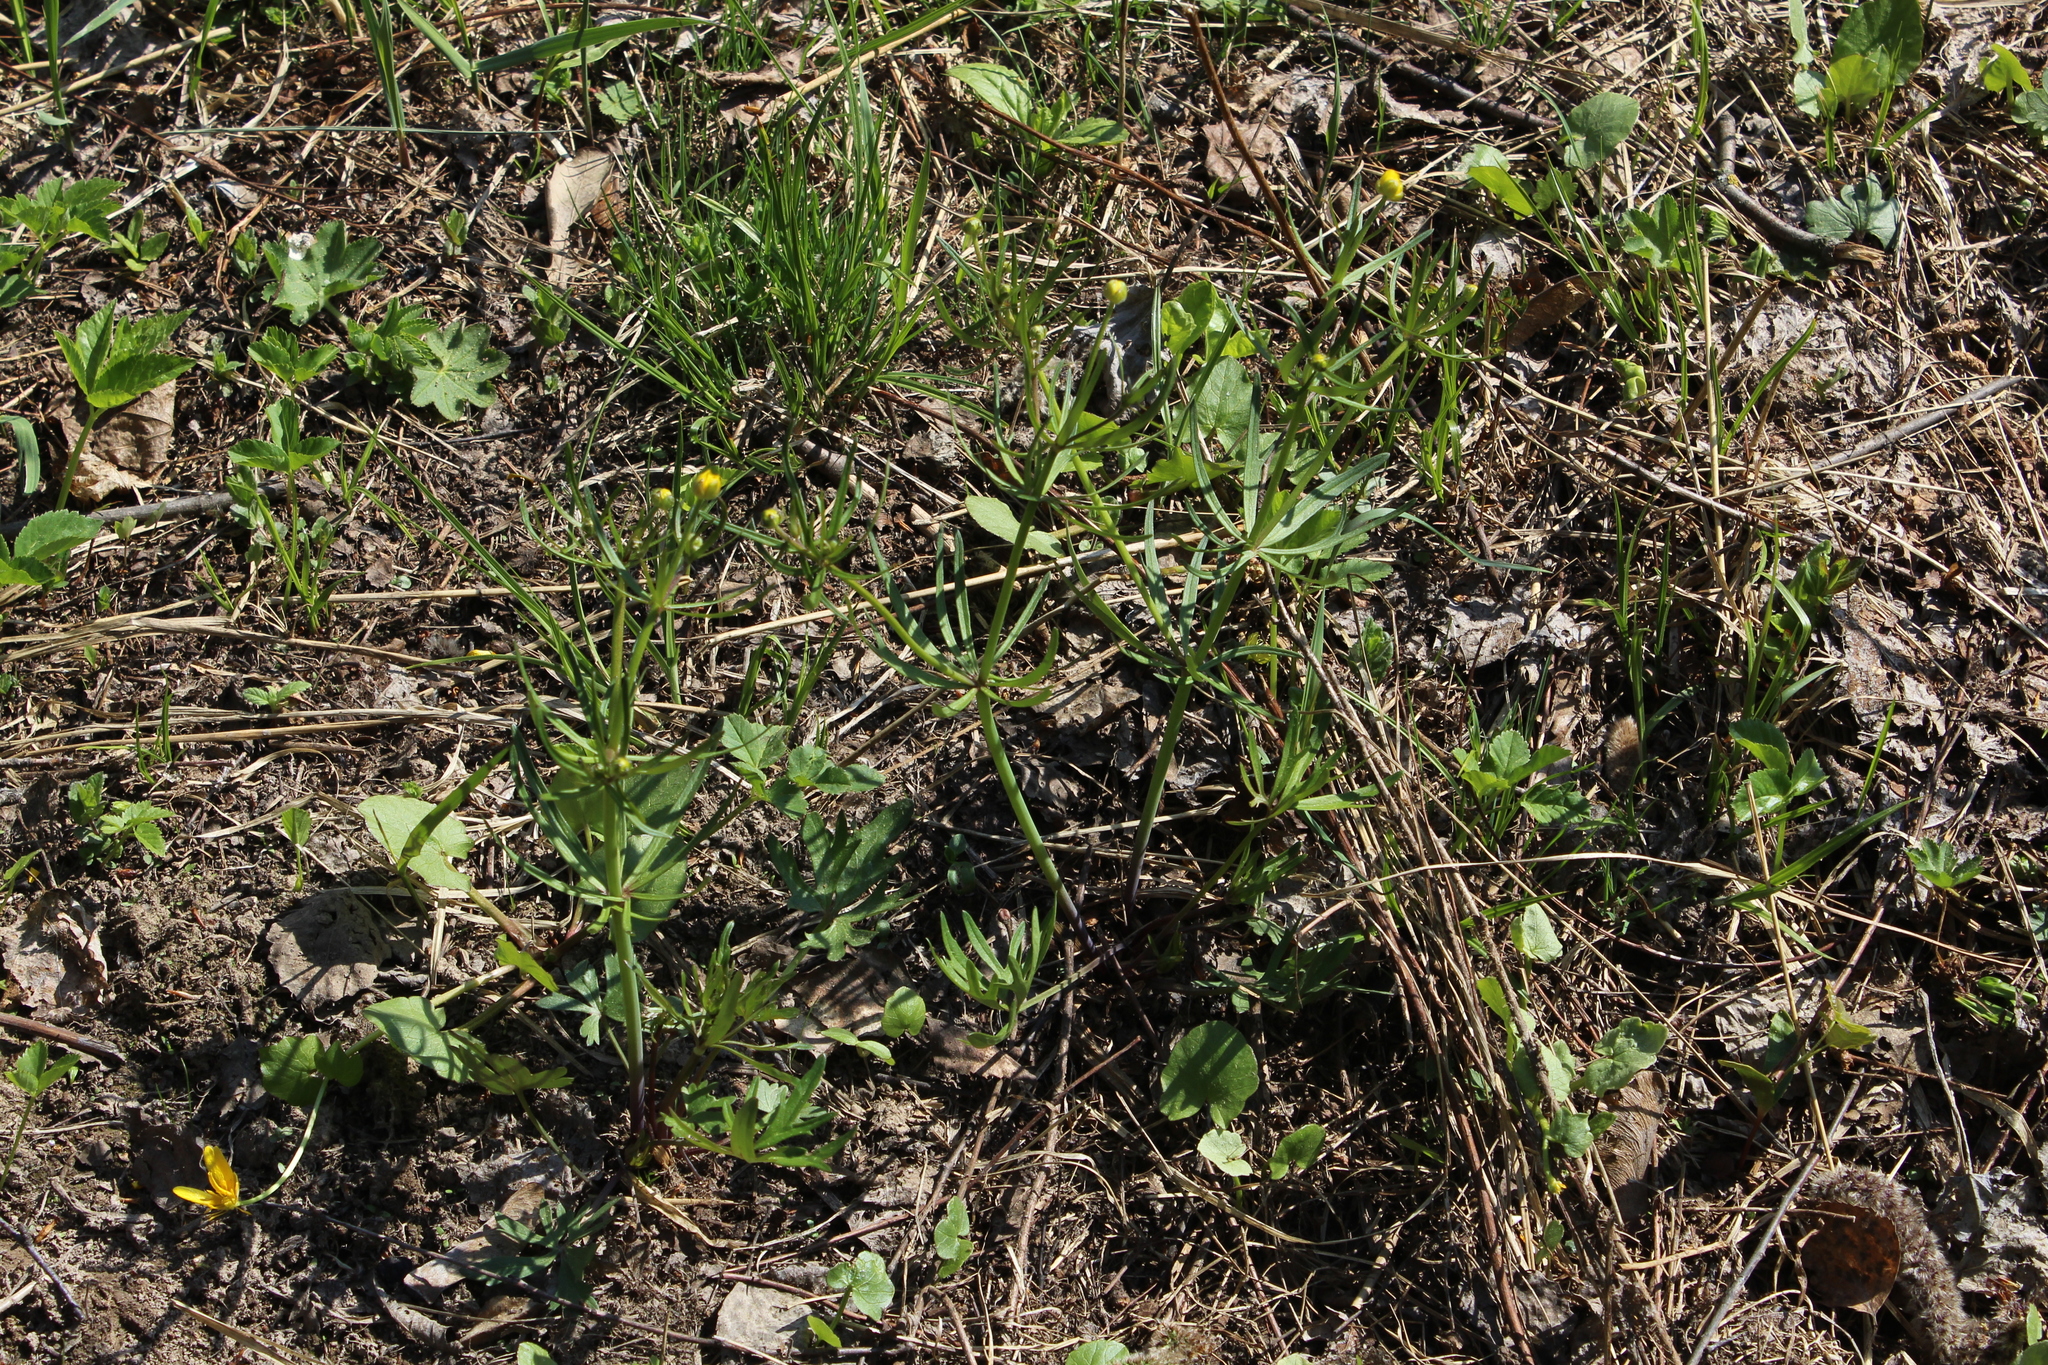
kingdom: Plantae
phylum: Tracheophyta
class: Magnoliopsida
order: Ranunculales
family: Ranunculaceae
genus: Ranunculus
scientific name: Ranunculus auricomus
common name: Goldilocks buttercup
